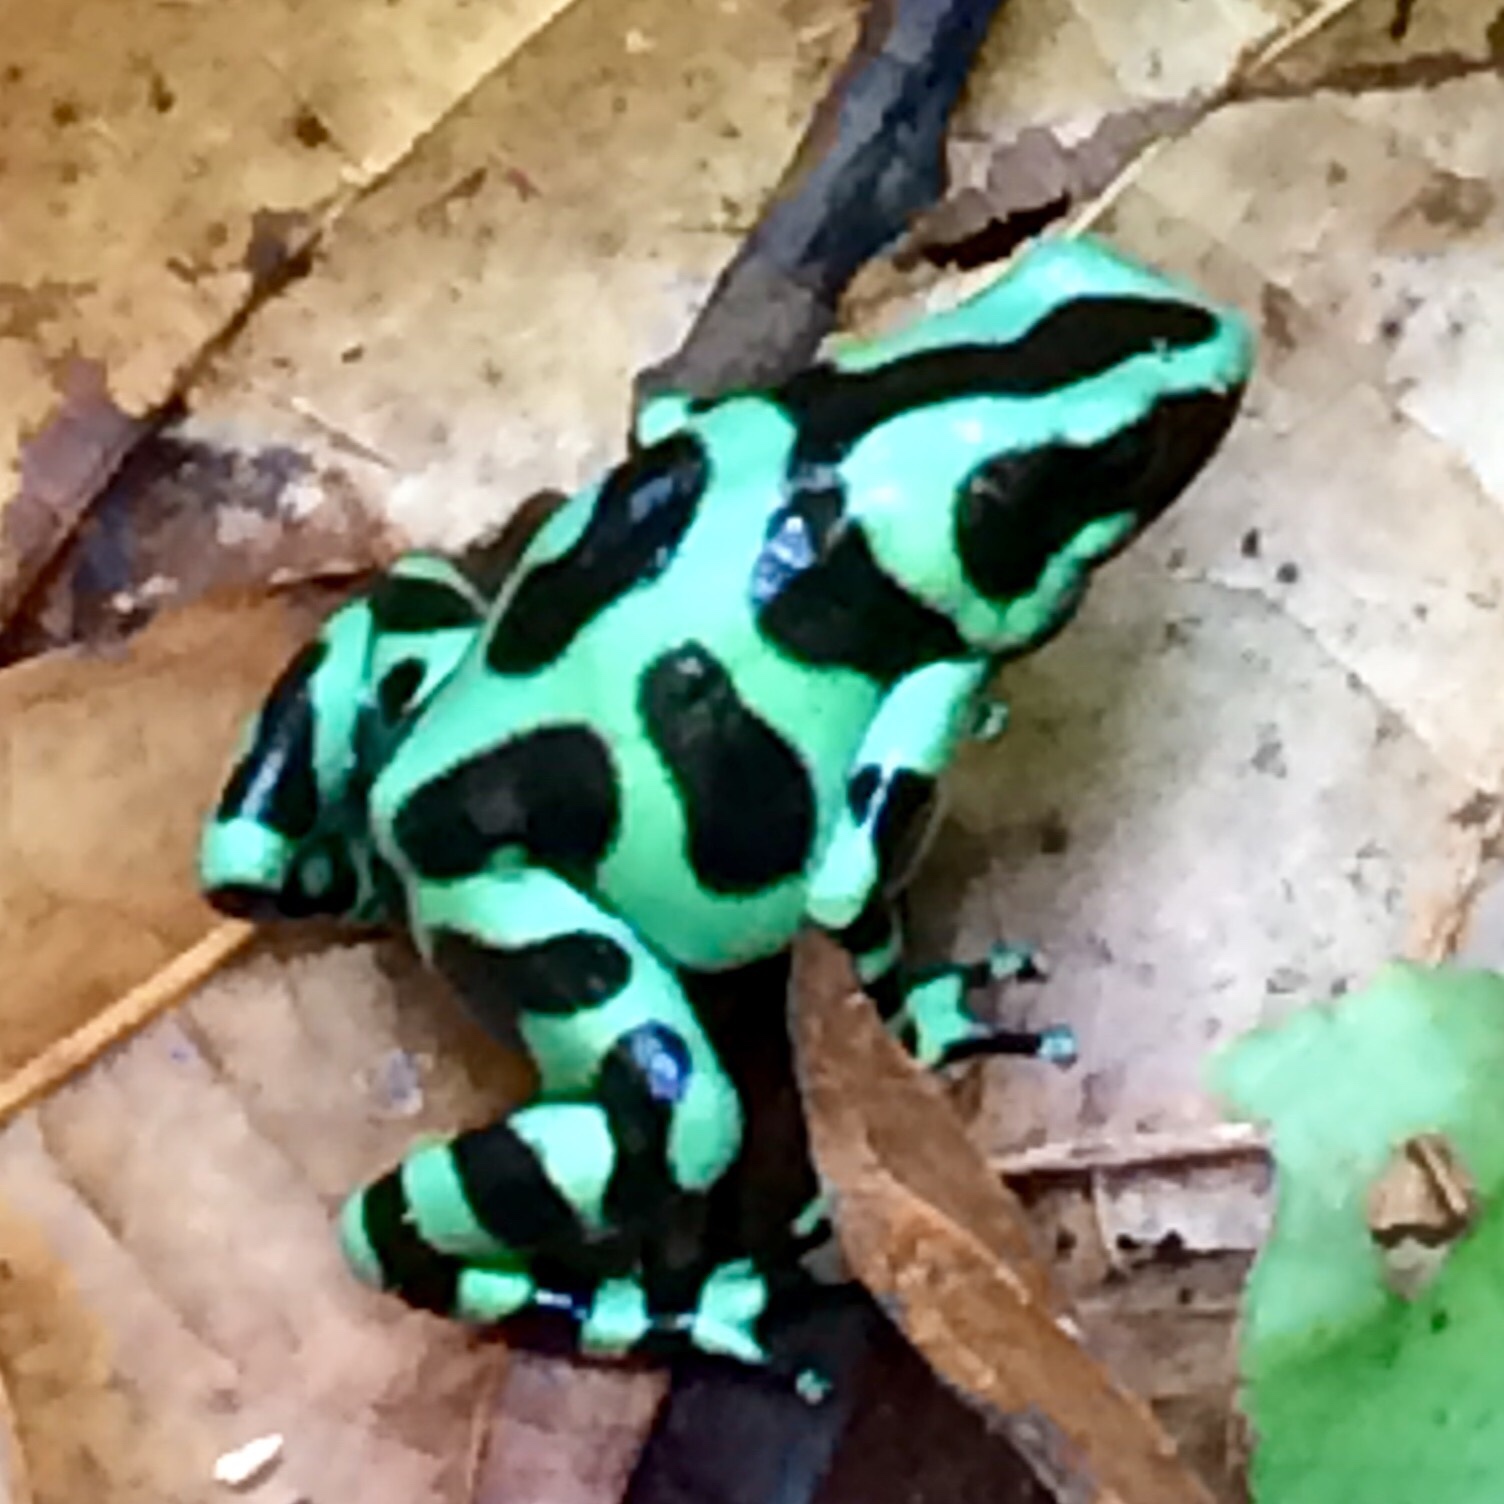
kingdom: Animalia
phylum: Chordata
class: Amphibia
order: Anura
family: Dendrobatidae
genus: Dendrobates
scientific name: Dendrobates auratus
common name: Green and black poison dart frog
